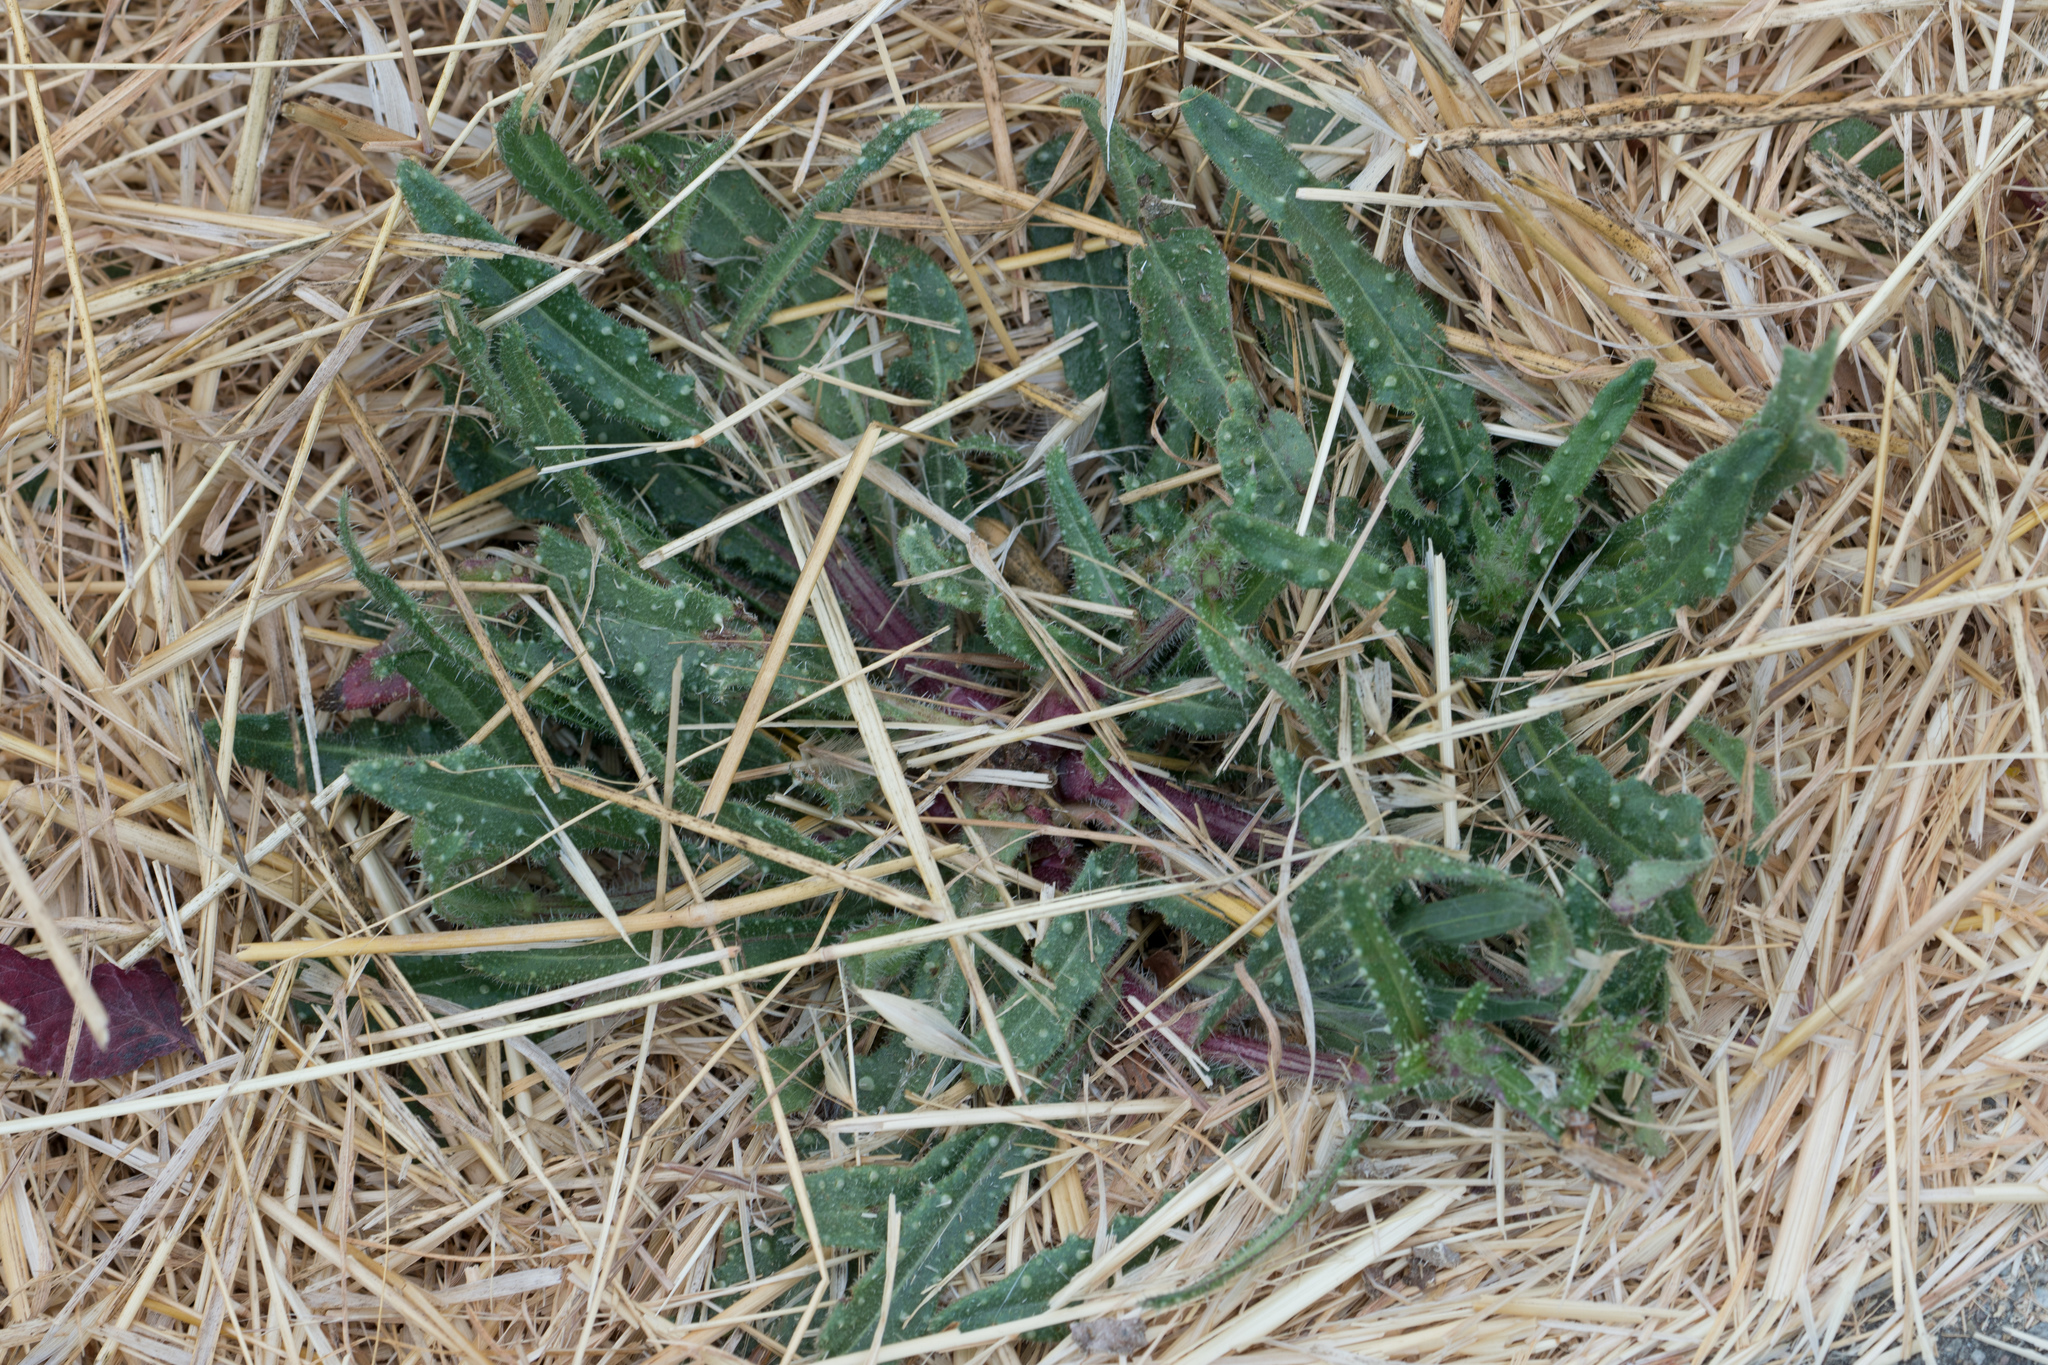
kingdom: Plantae
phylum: Tracheophyta
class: Magnoliopsida
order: Asterales
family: Asteraceae
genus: Helminthotheca
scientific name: Helminthotheca echioides
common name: Ox-tongue
